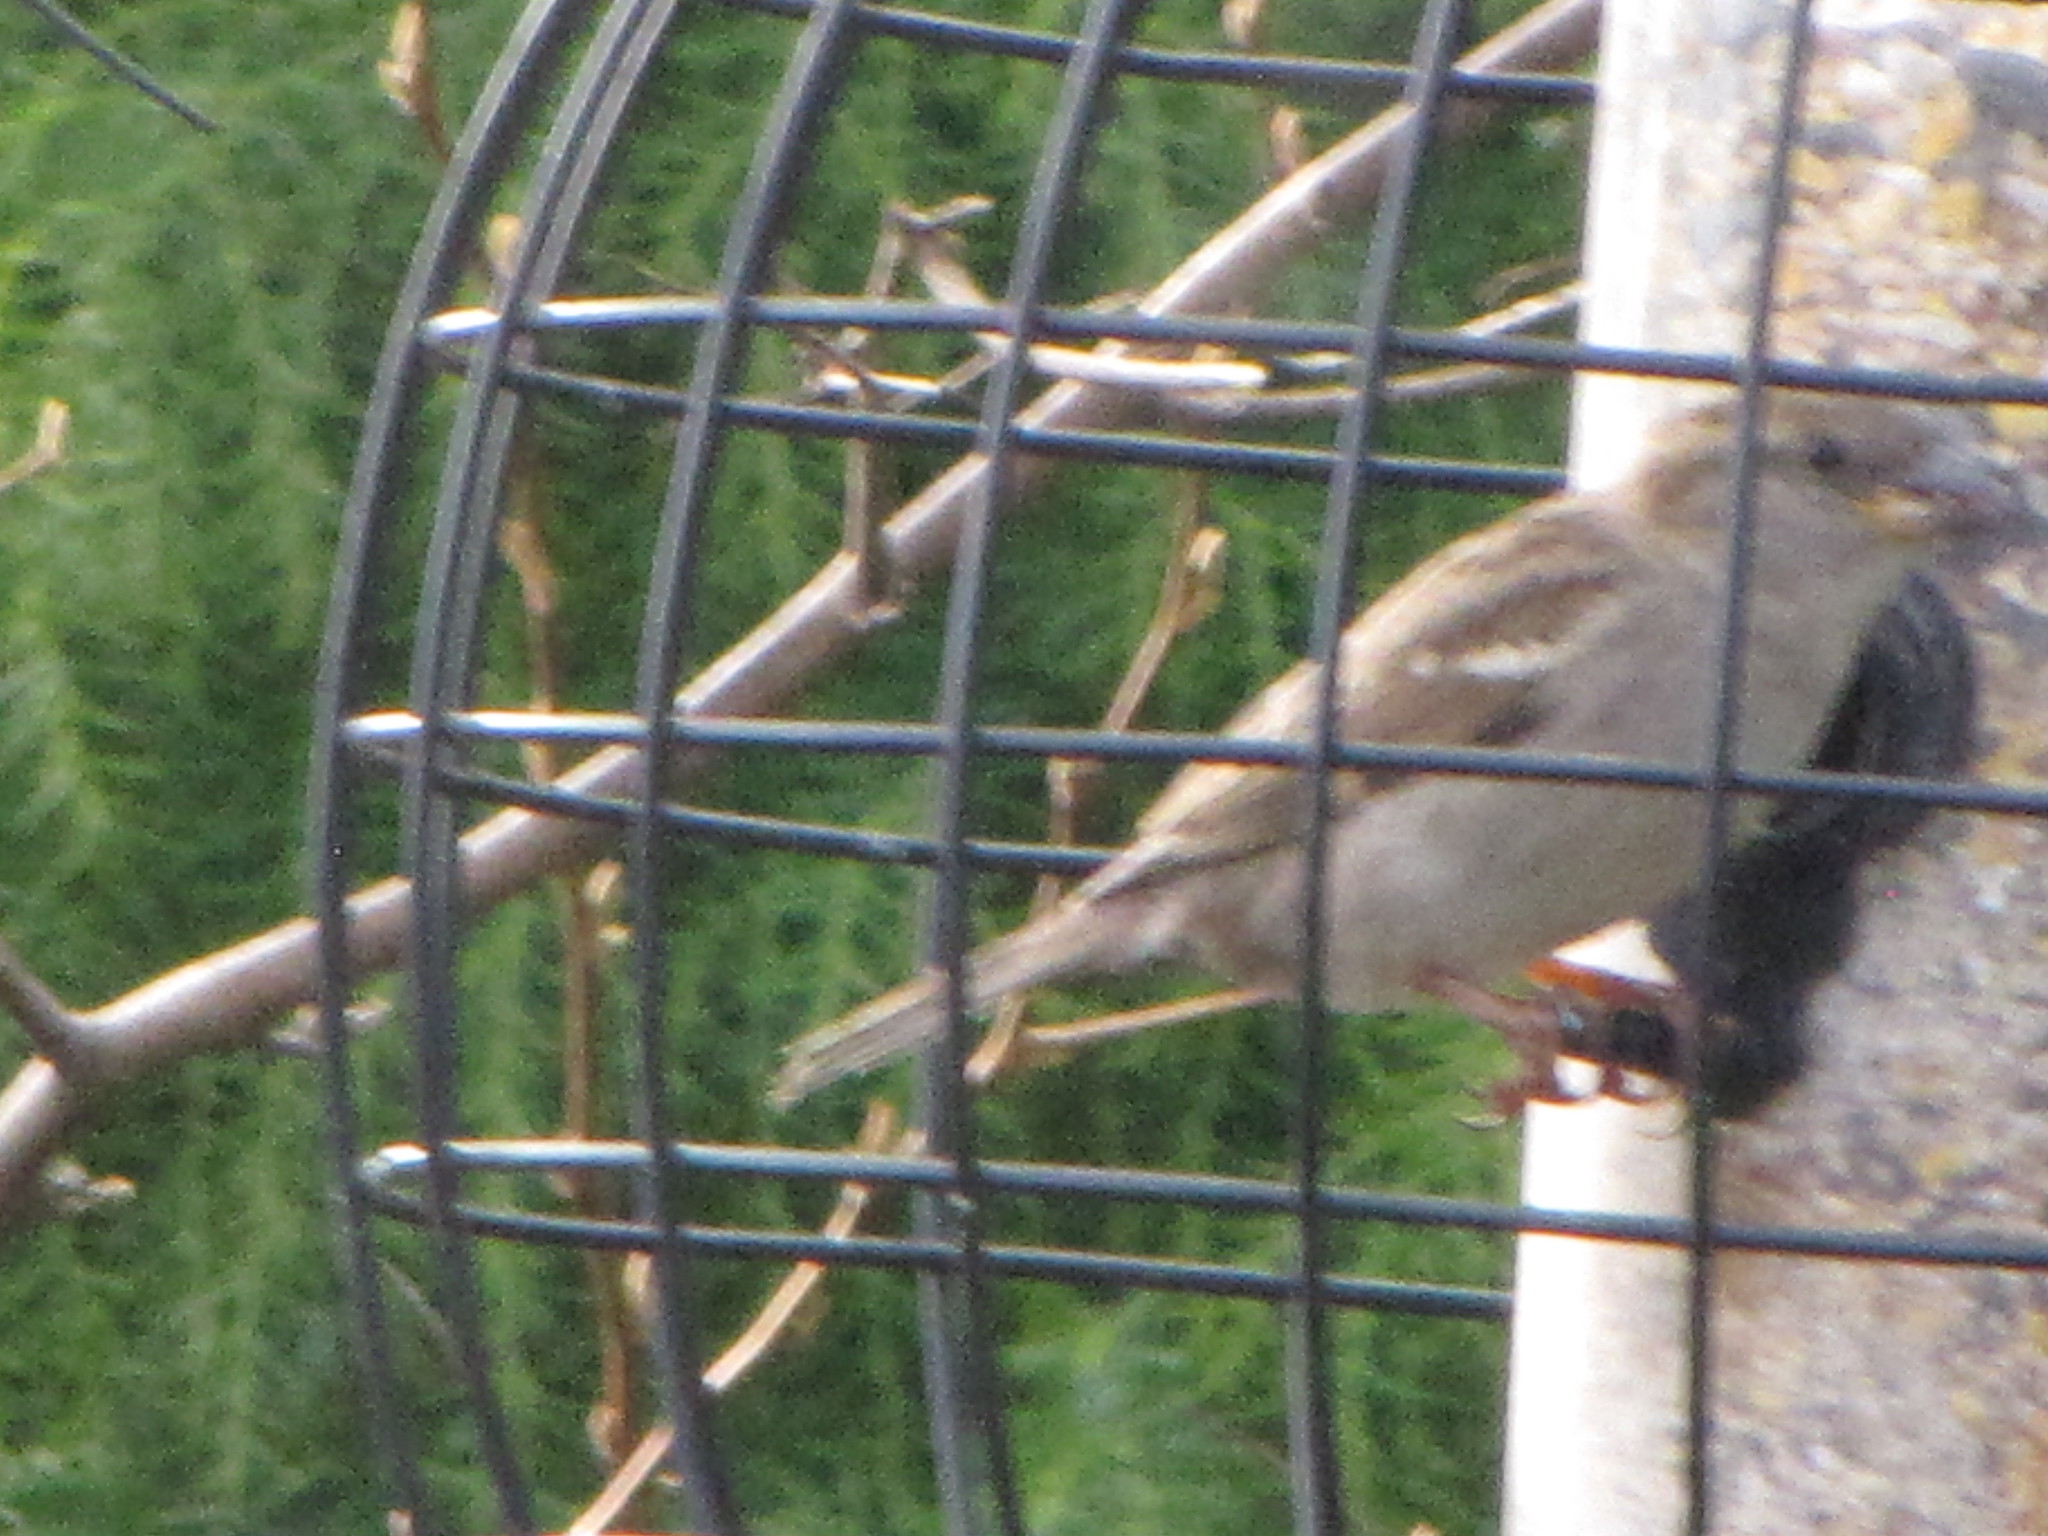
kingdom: Animalia
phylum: Chordata
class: Aves
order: Passeriformes
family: Passeridae
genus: Passer
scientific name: Passer domesticus
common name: House sparrow
